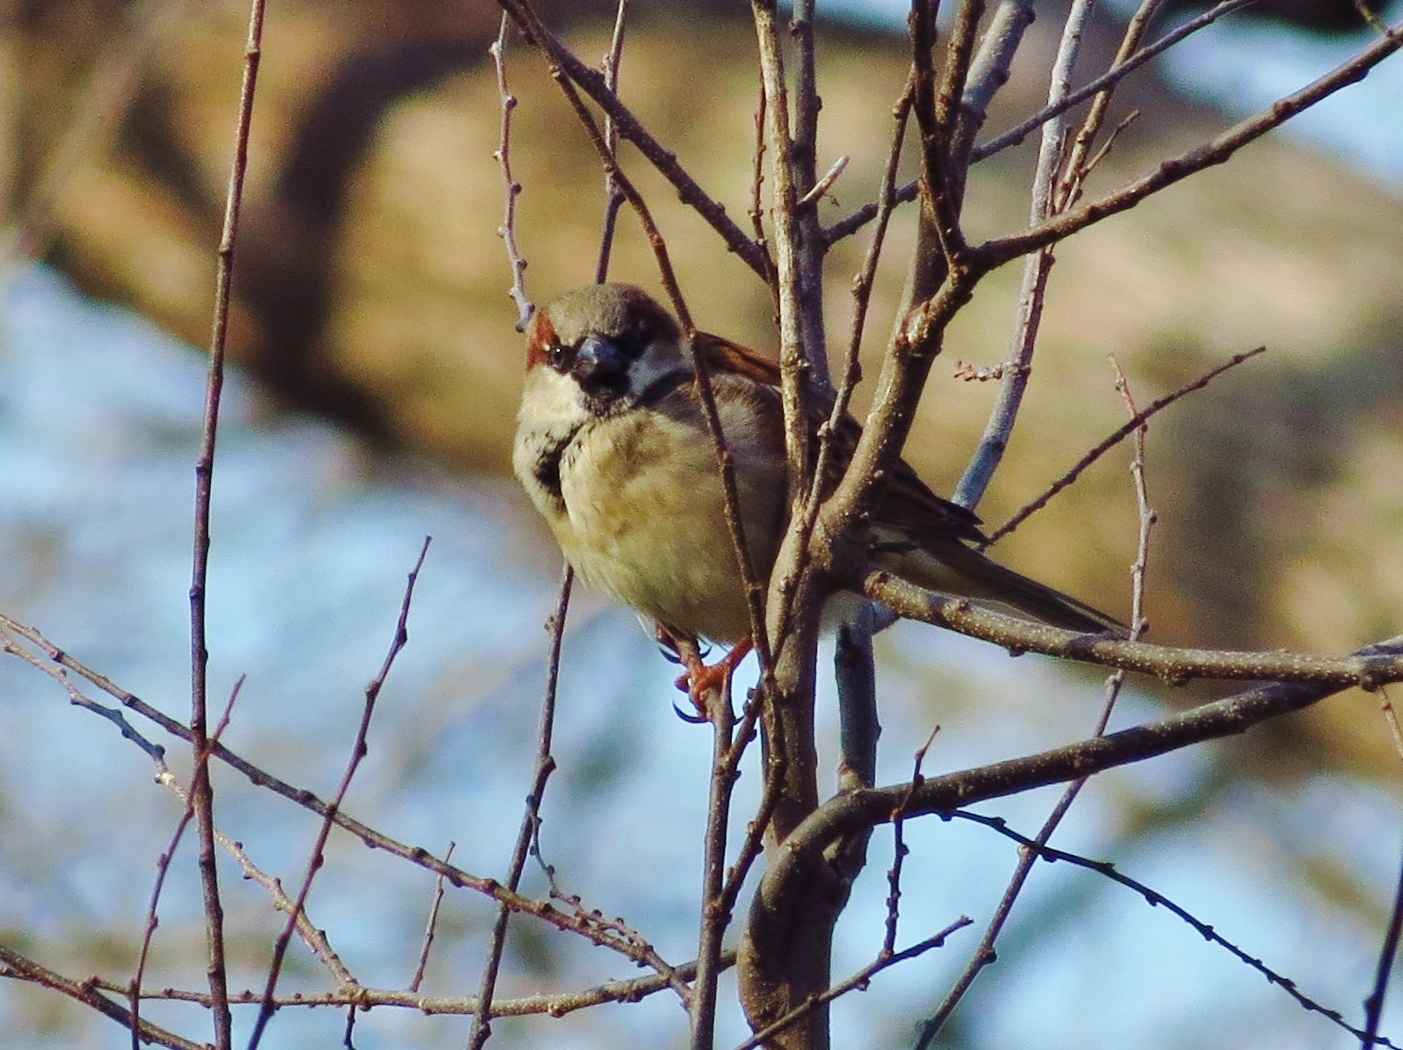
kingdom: Animalia
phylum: Chordata
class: Aves
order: Passeriformes
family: Passeridae
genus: Passer
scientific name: Passer domesticus
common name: House sparrow
